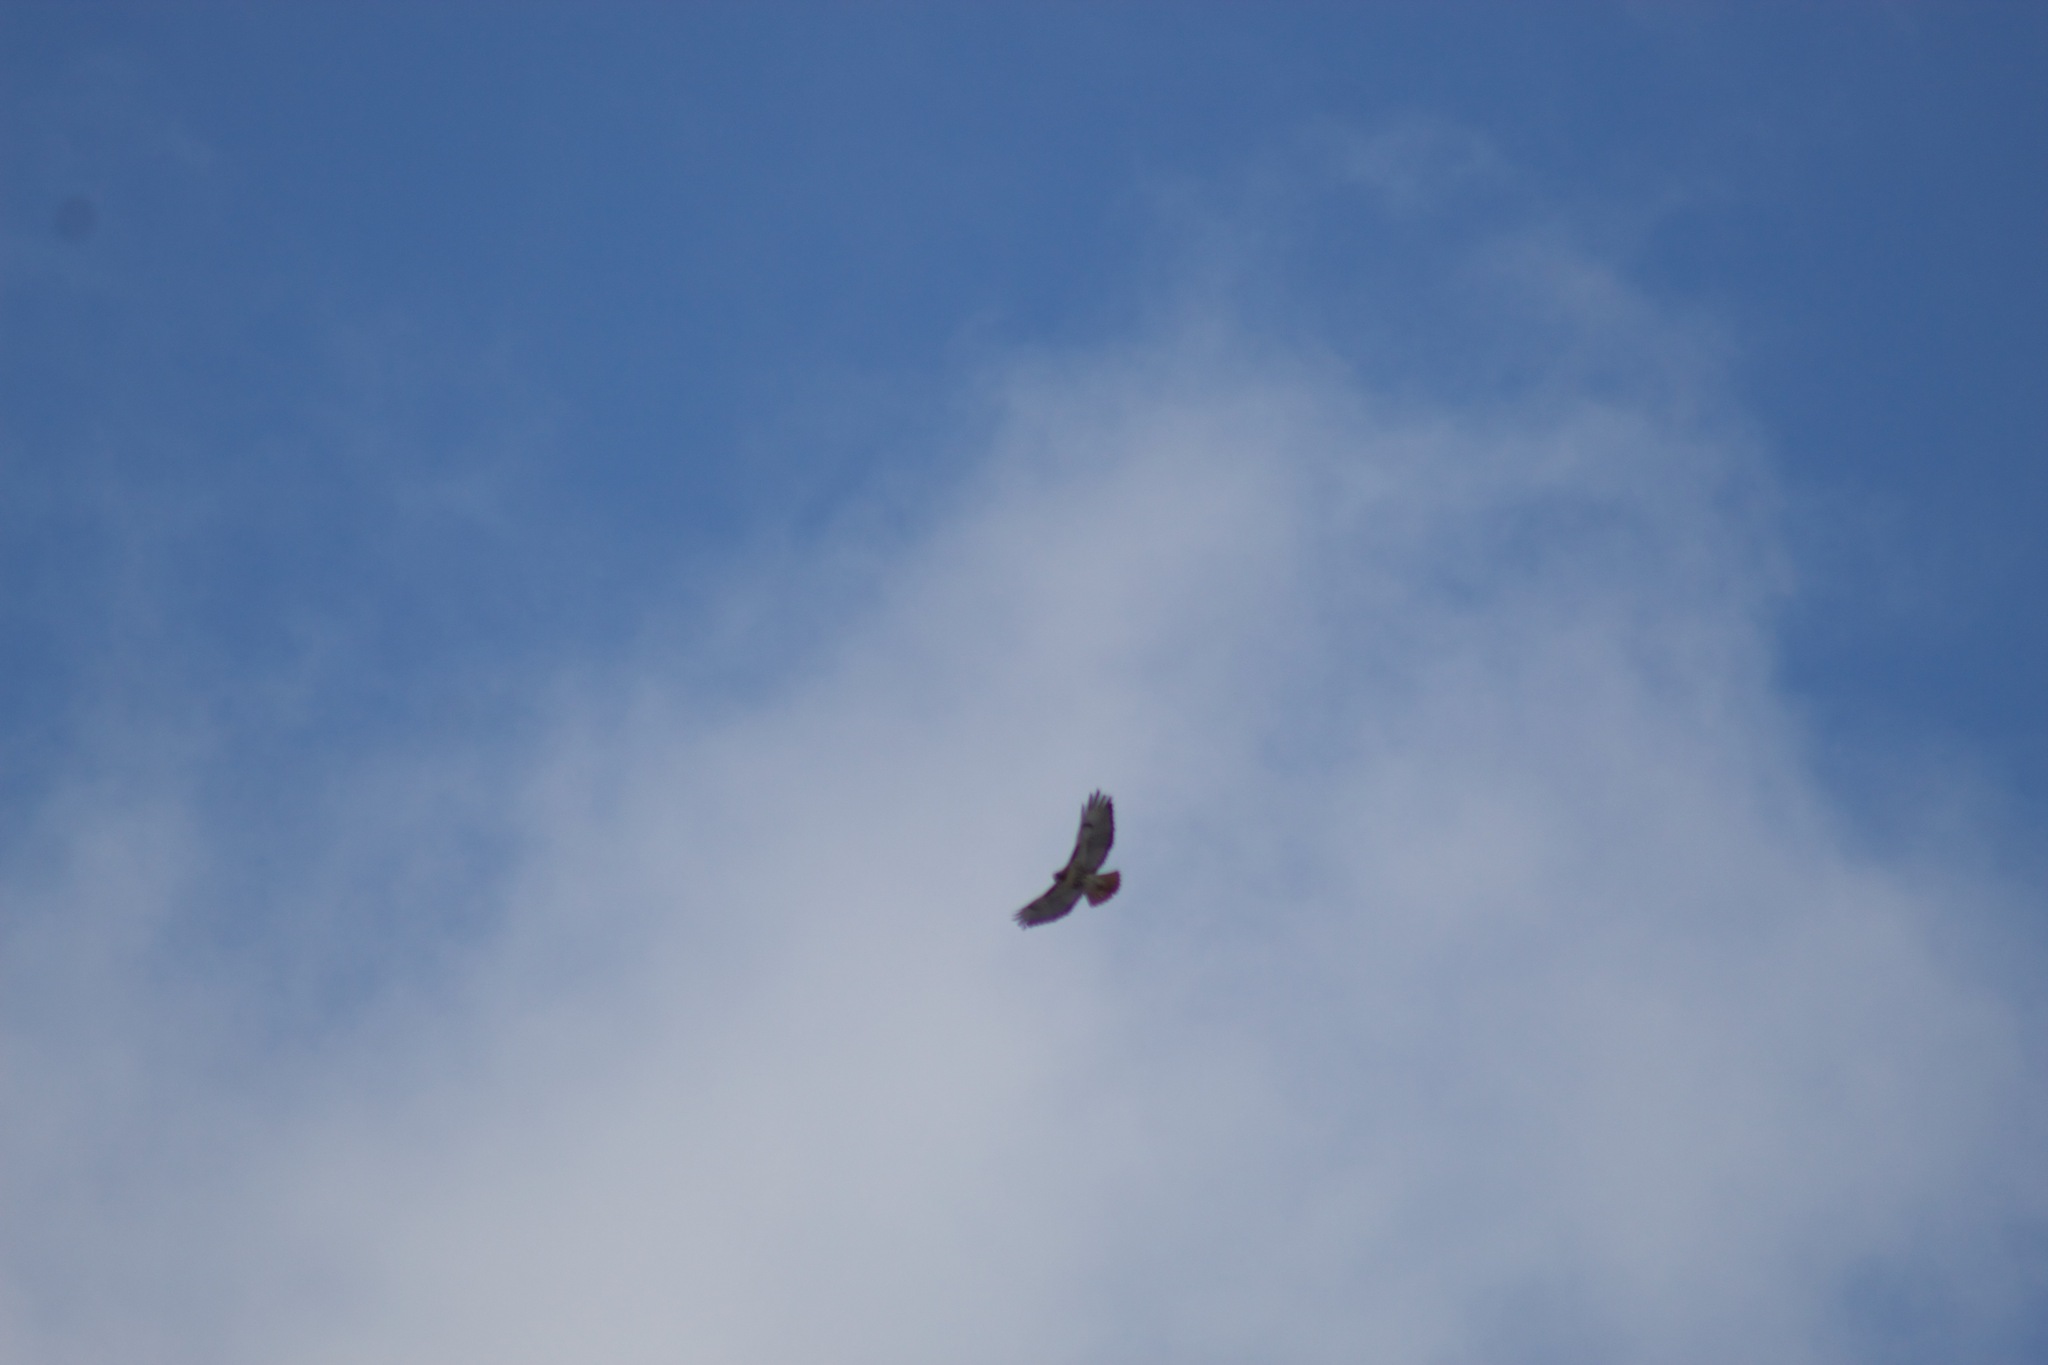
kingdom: Animalia
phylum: Chordata
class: Aves
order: Accipitriformes
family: Accipitridae
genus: Buteo
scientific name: Buteo jamaicensis
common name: Red-tailed hawk
